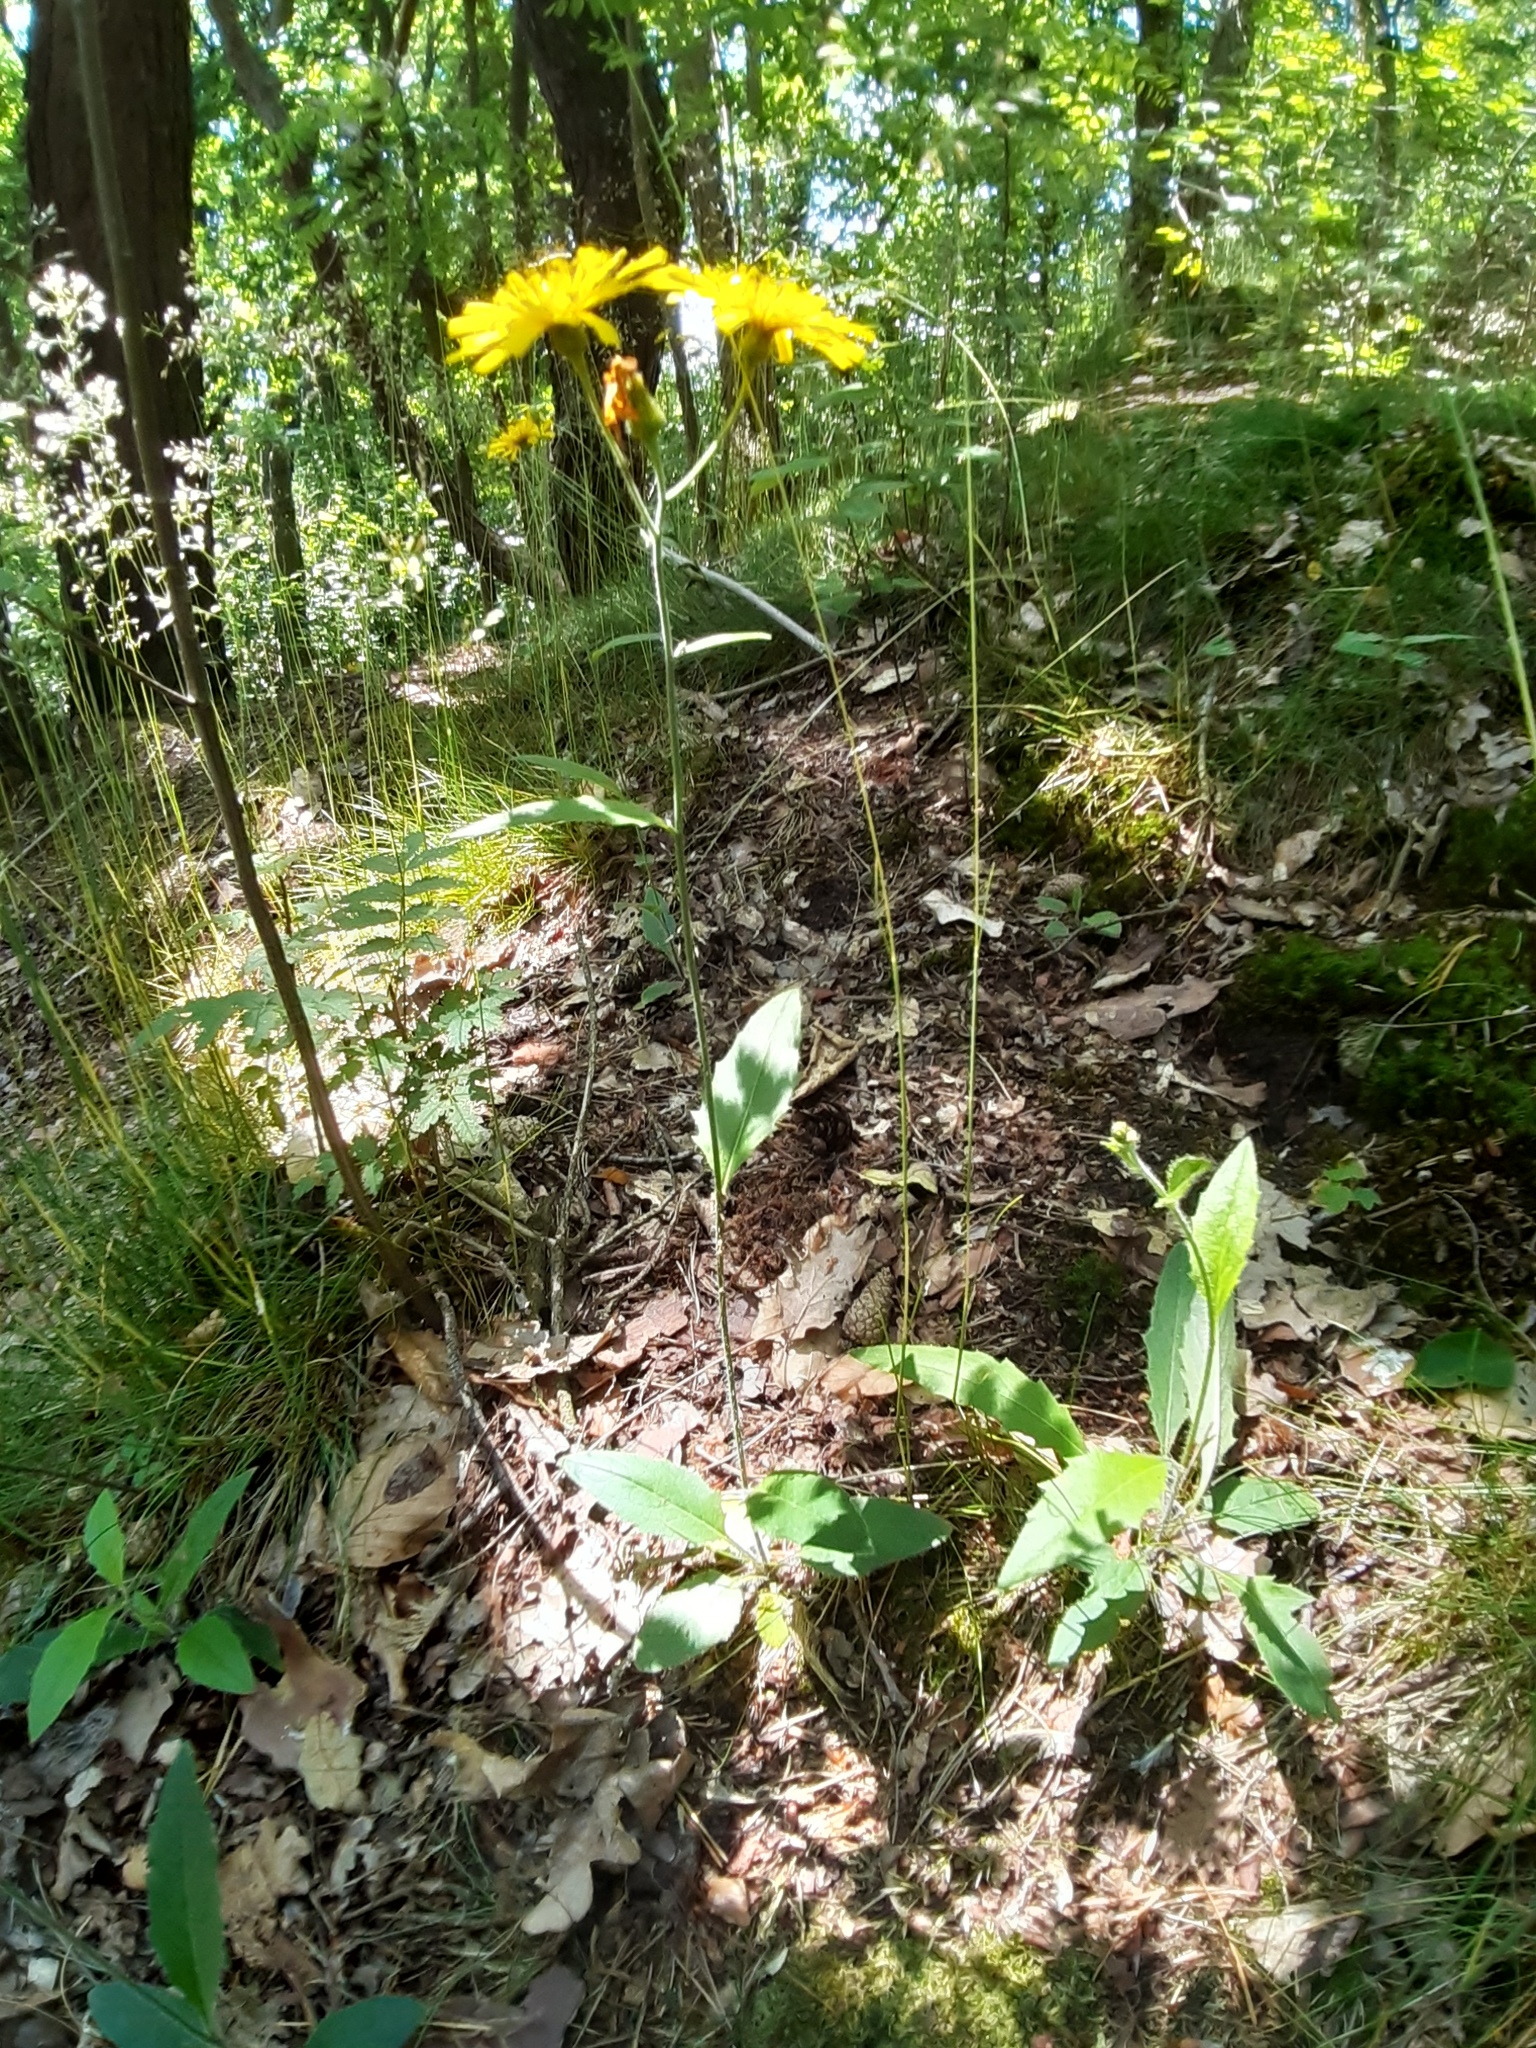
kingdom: Plantae
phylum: Tracheophyta
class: Magnoliopsida
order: Asterales
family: Asteraceae
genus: Hieracium
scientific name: Hieracium lachenalii
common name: Common hawkweed
